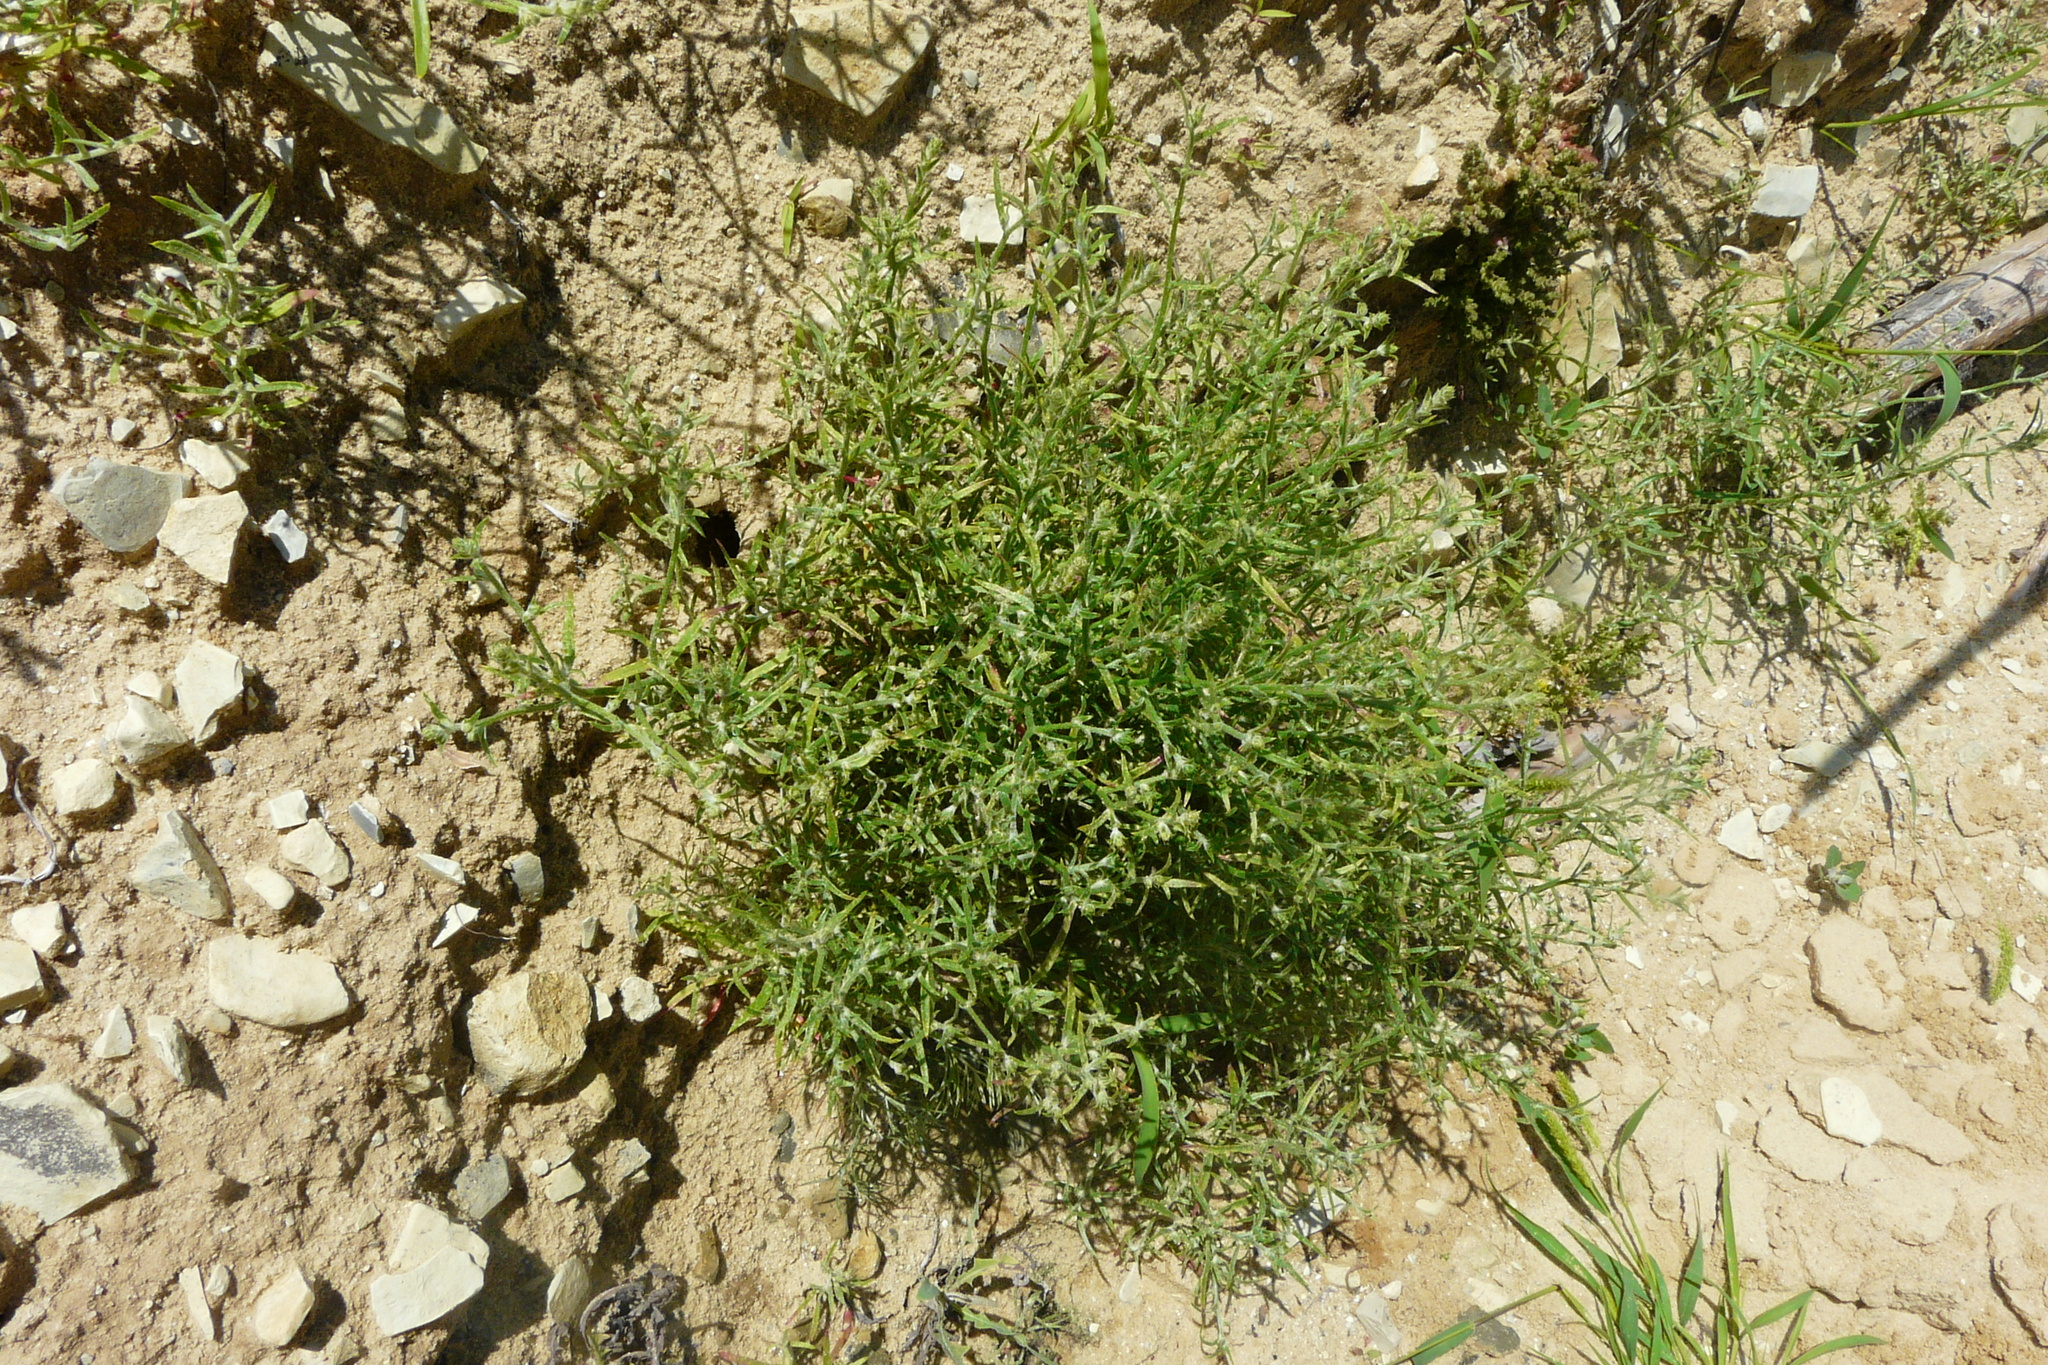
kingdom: Plantae
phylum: Tracheophyta
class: Magnoliopsida
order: Caryophyllales
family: Amaranthaceae
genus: Corispermum
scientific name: Corispermum hyssopifolium
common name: Bugseed
